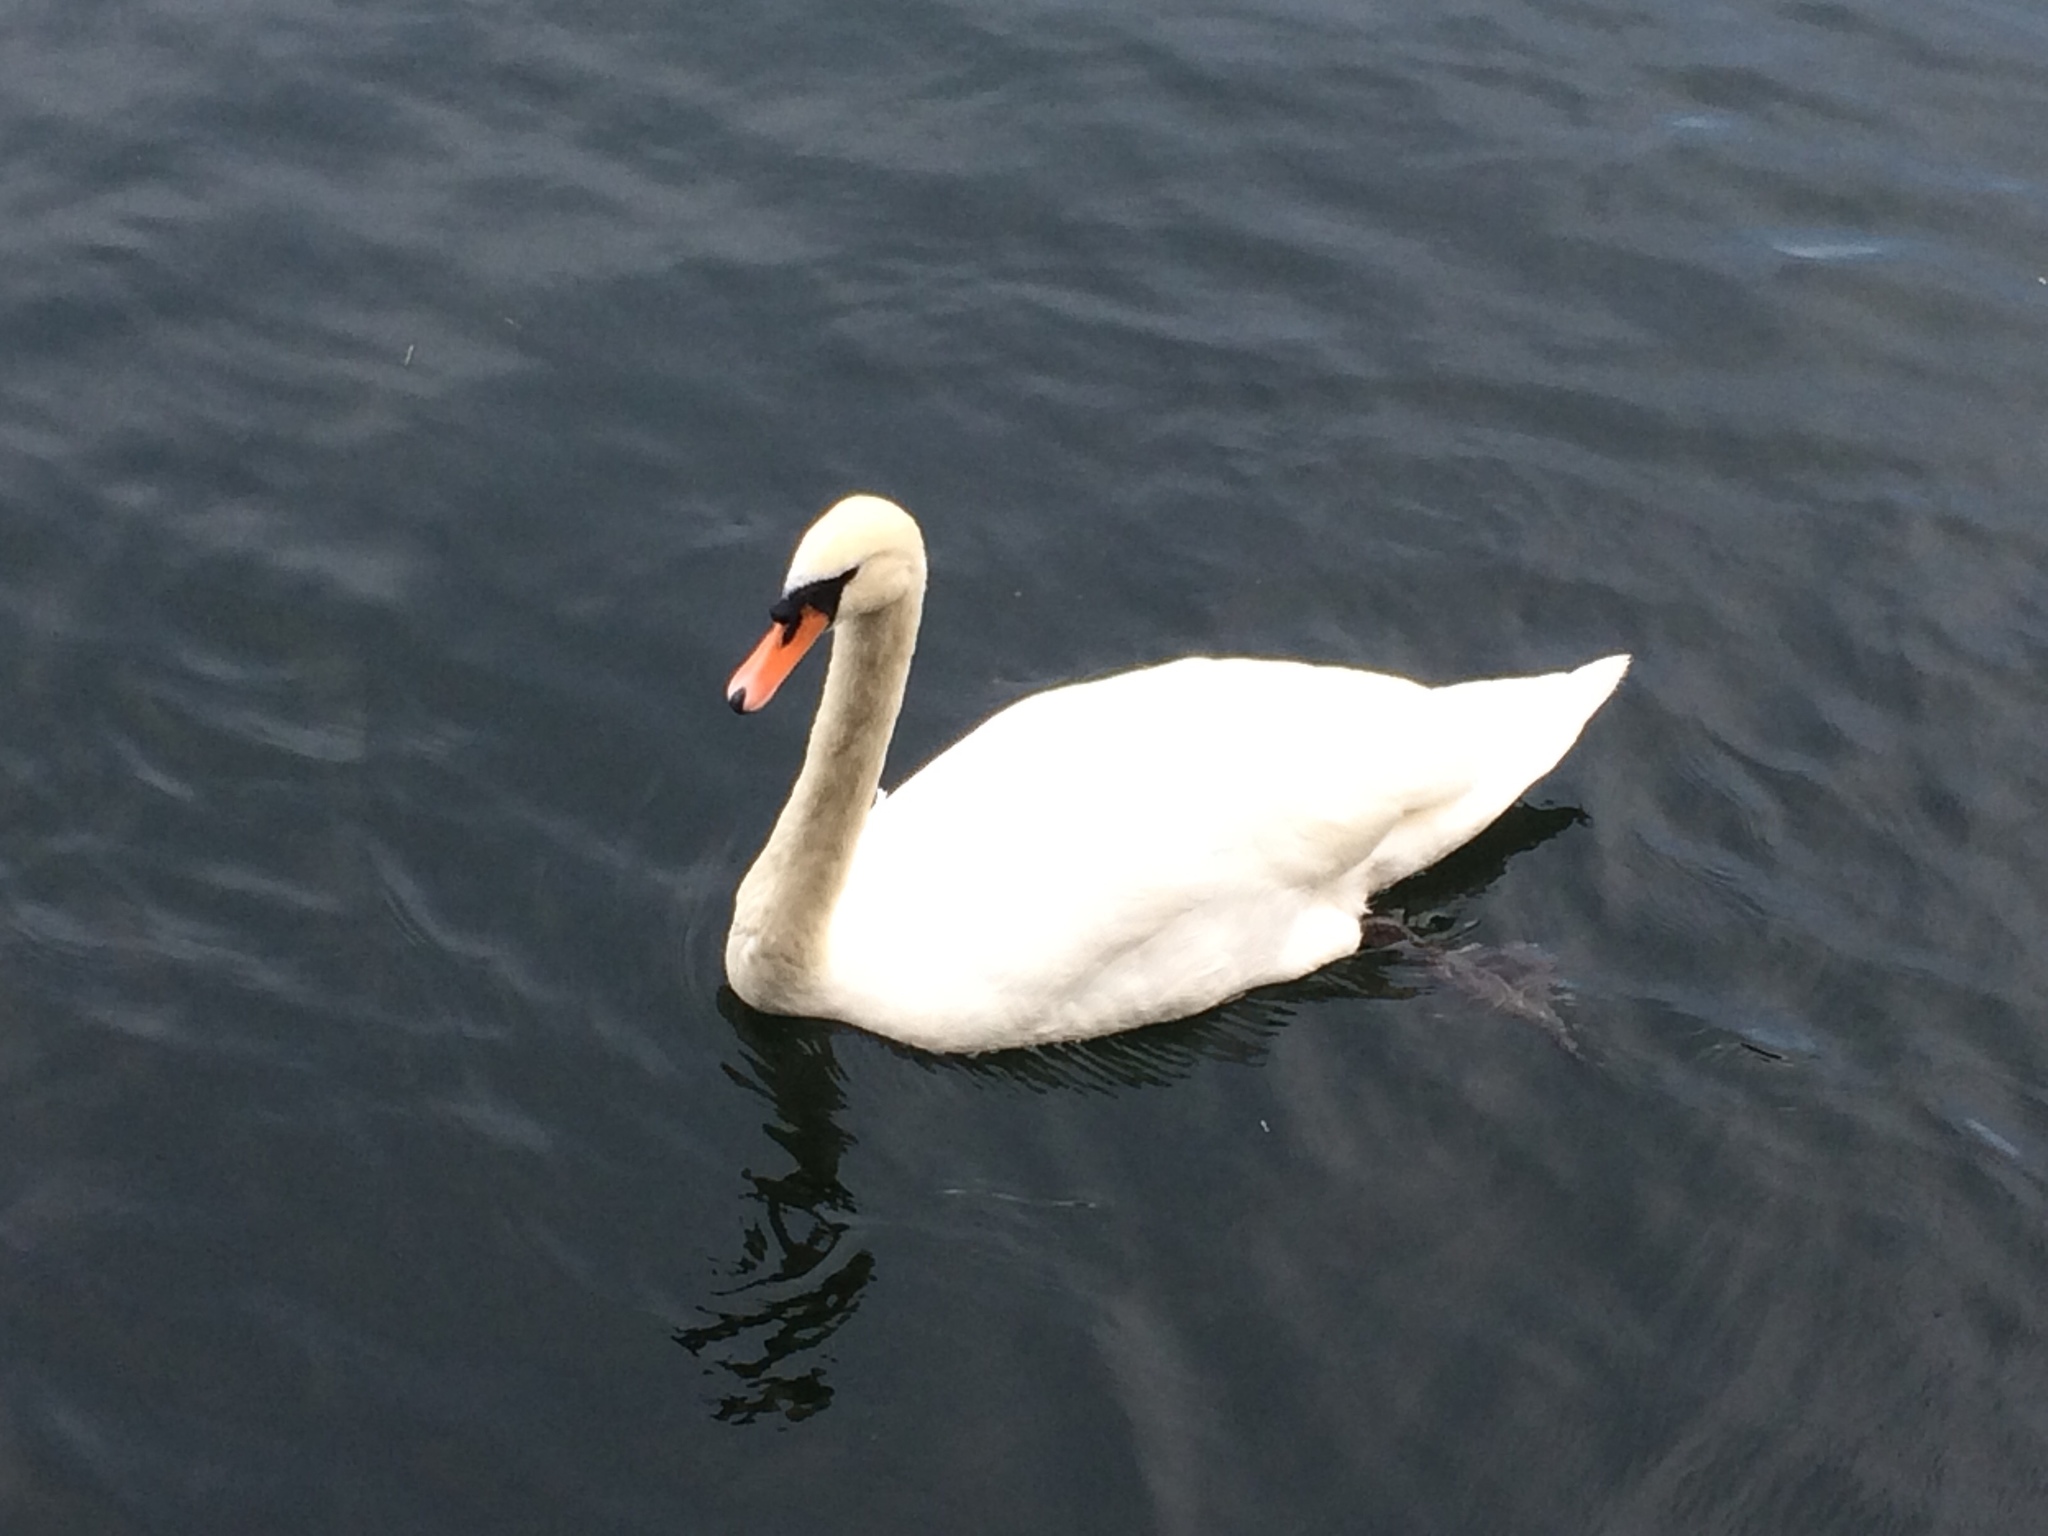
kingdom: Animalia
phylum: Chordata
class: Aves
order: Anseriformes
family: Anatidae
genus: Cygnus
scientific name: Cygnus olor
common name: Mute swan
